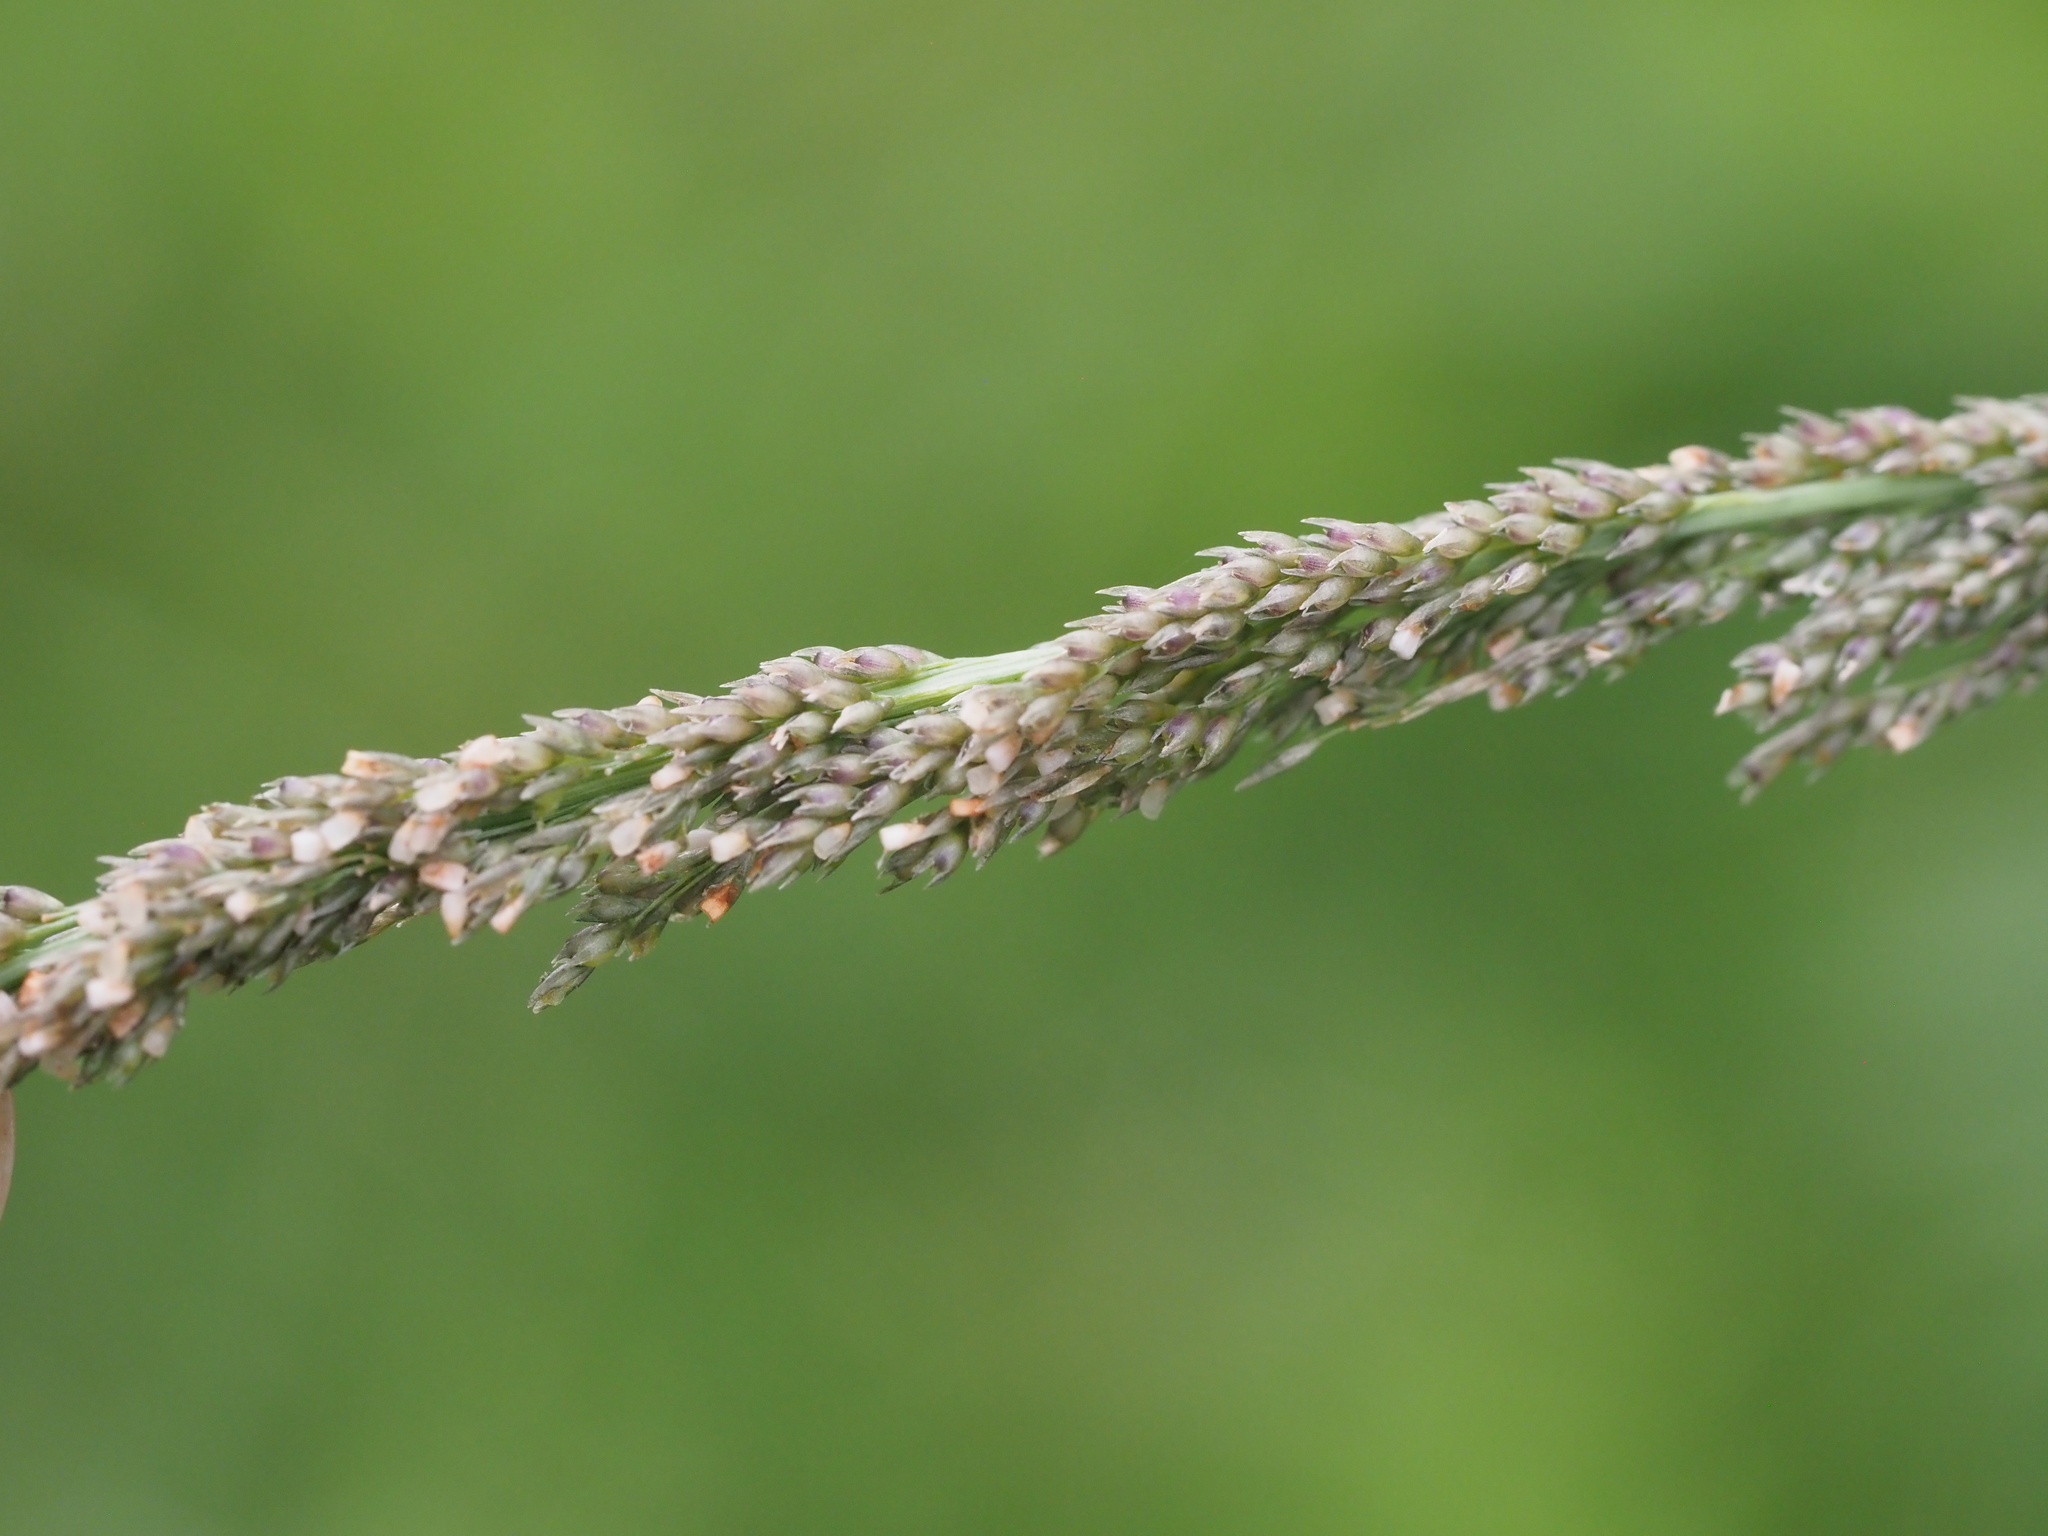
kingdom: Plantae
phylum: Tracheophyta
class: Liliopsida
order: Poales
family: Poaceae
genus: Sporobolus
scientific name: Sporobolus indicus
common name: Smut grass
